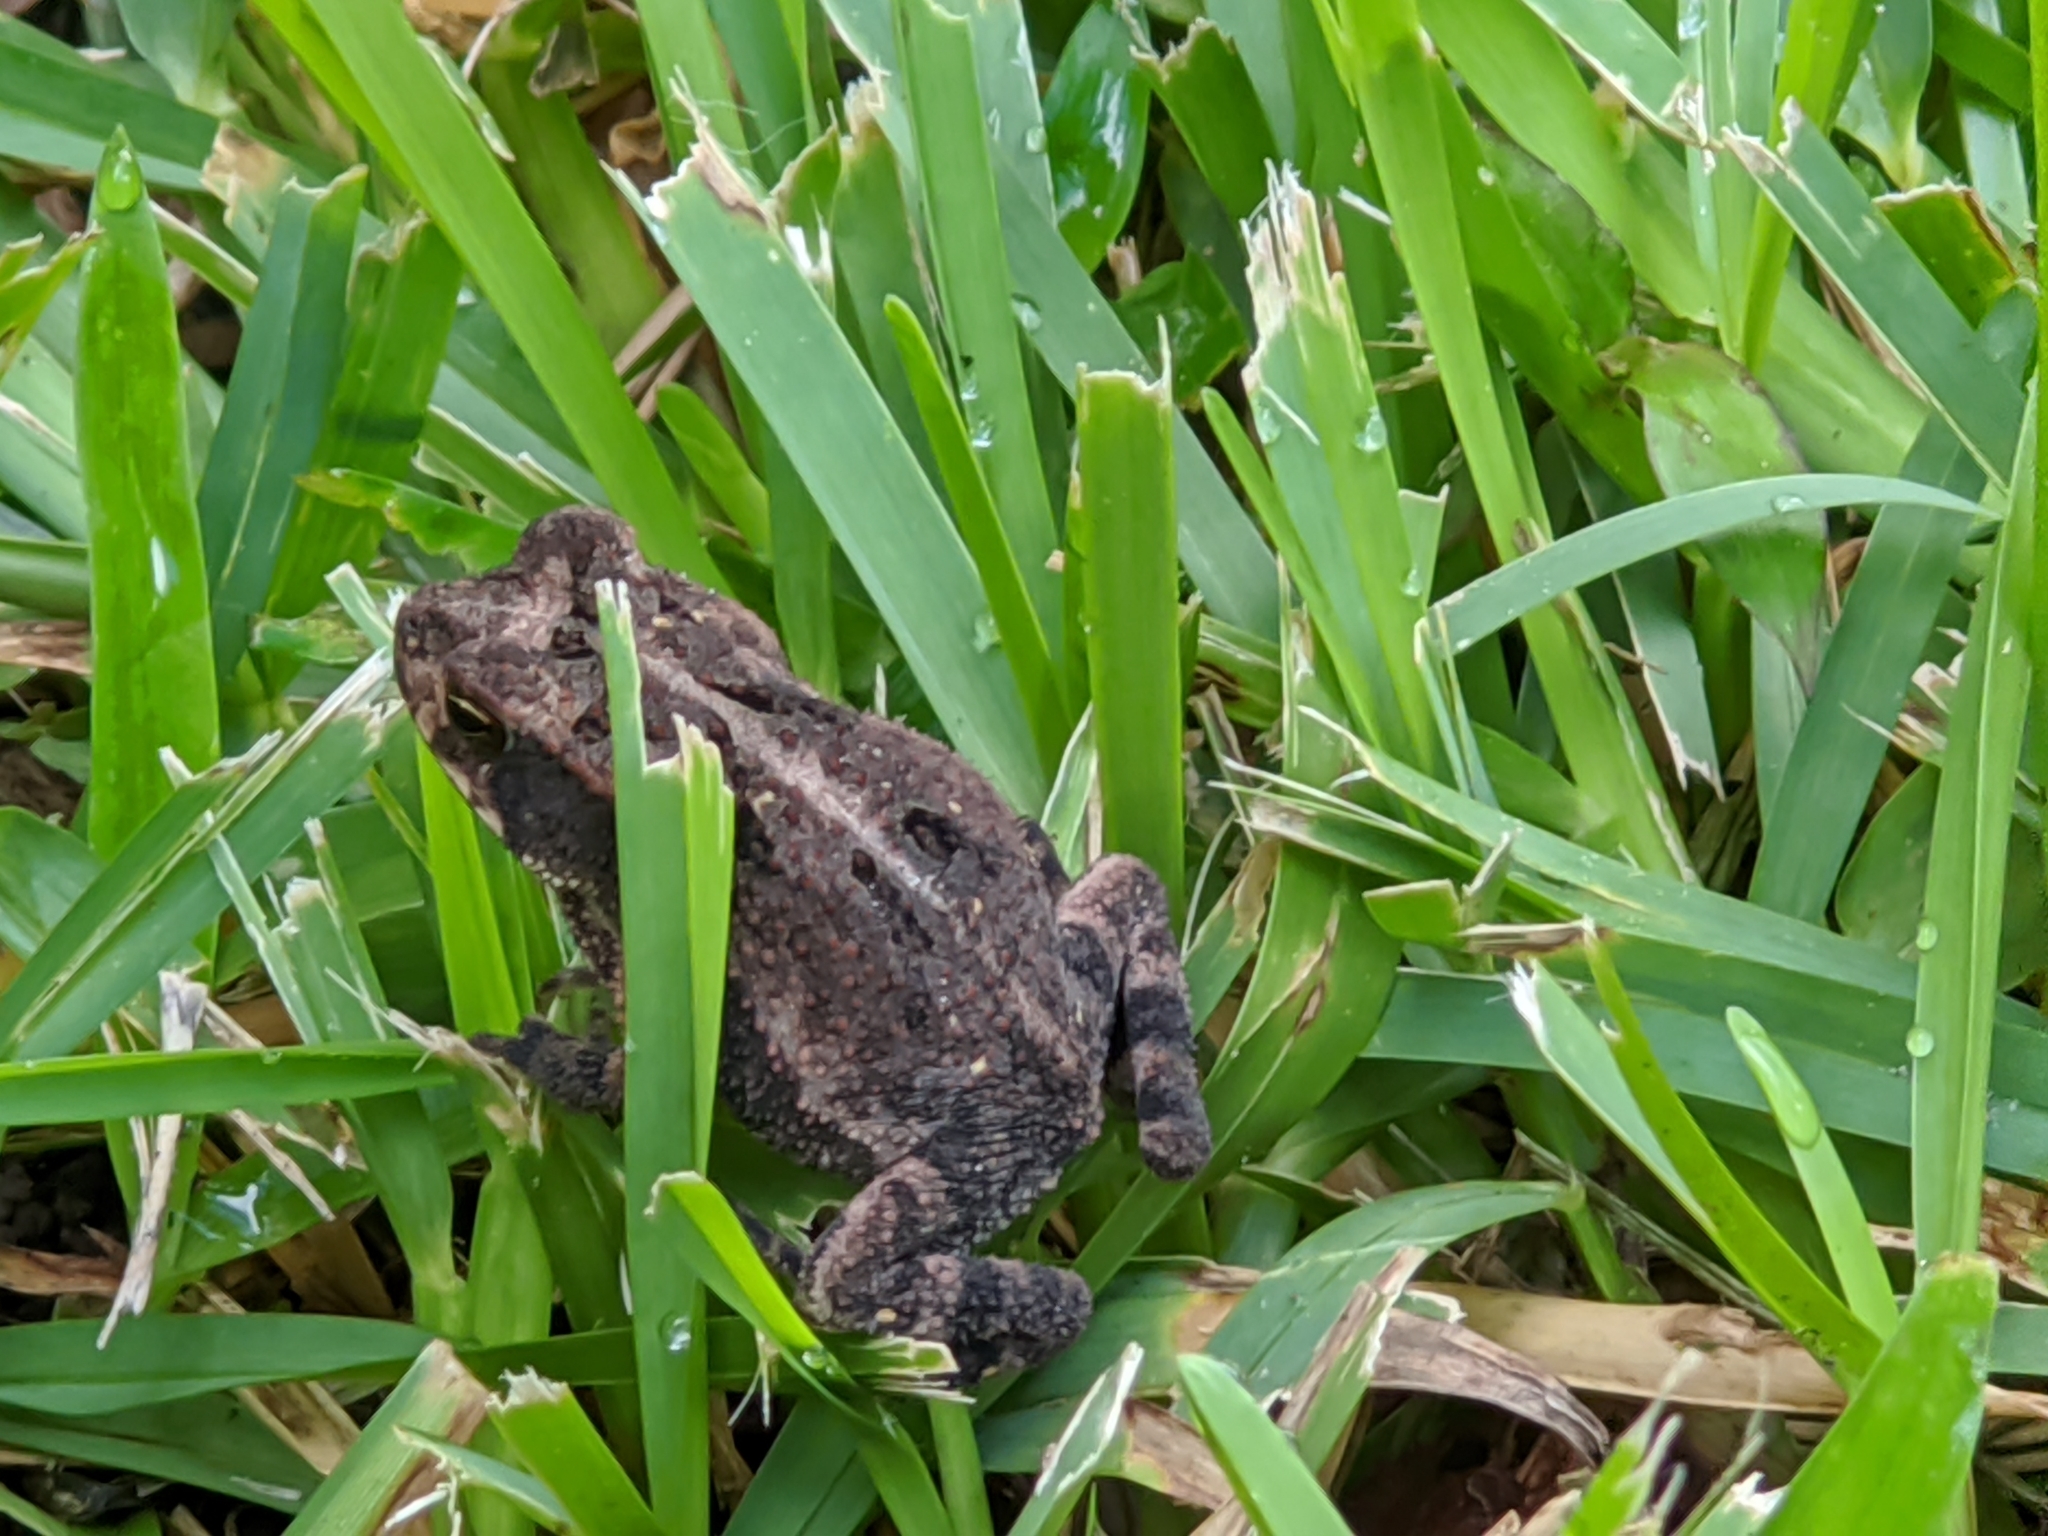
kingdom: Animalia
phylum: Chordata
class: Amphibia
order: Anura
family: Bufonidae
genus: Incilius
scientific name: Incilius nebulifer
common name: Gulf coast toad
